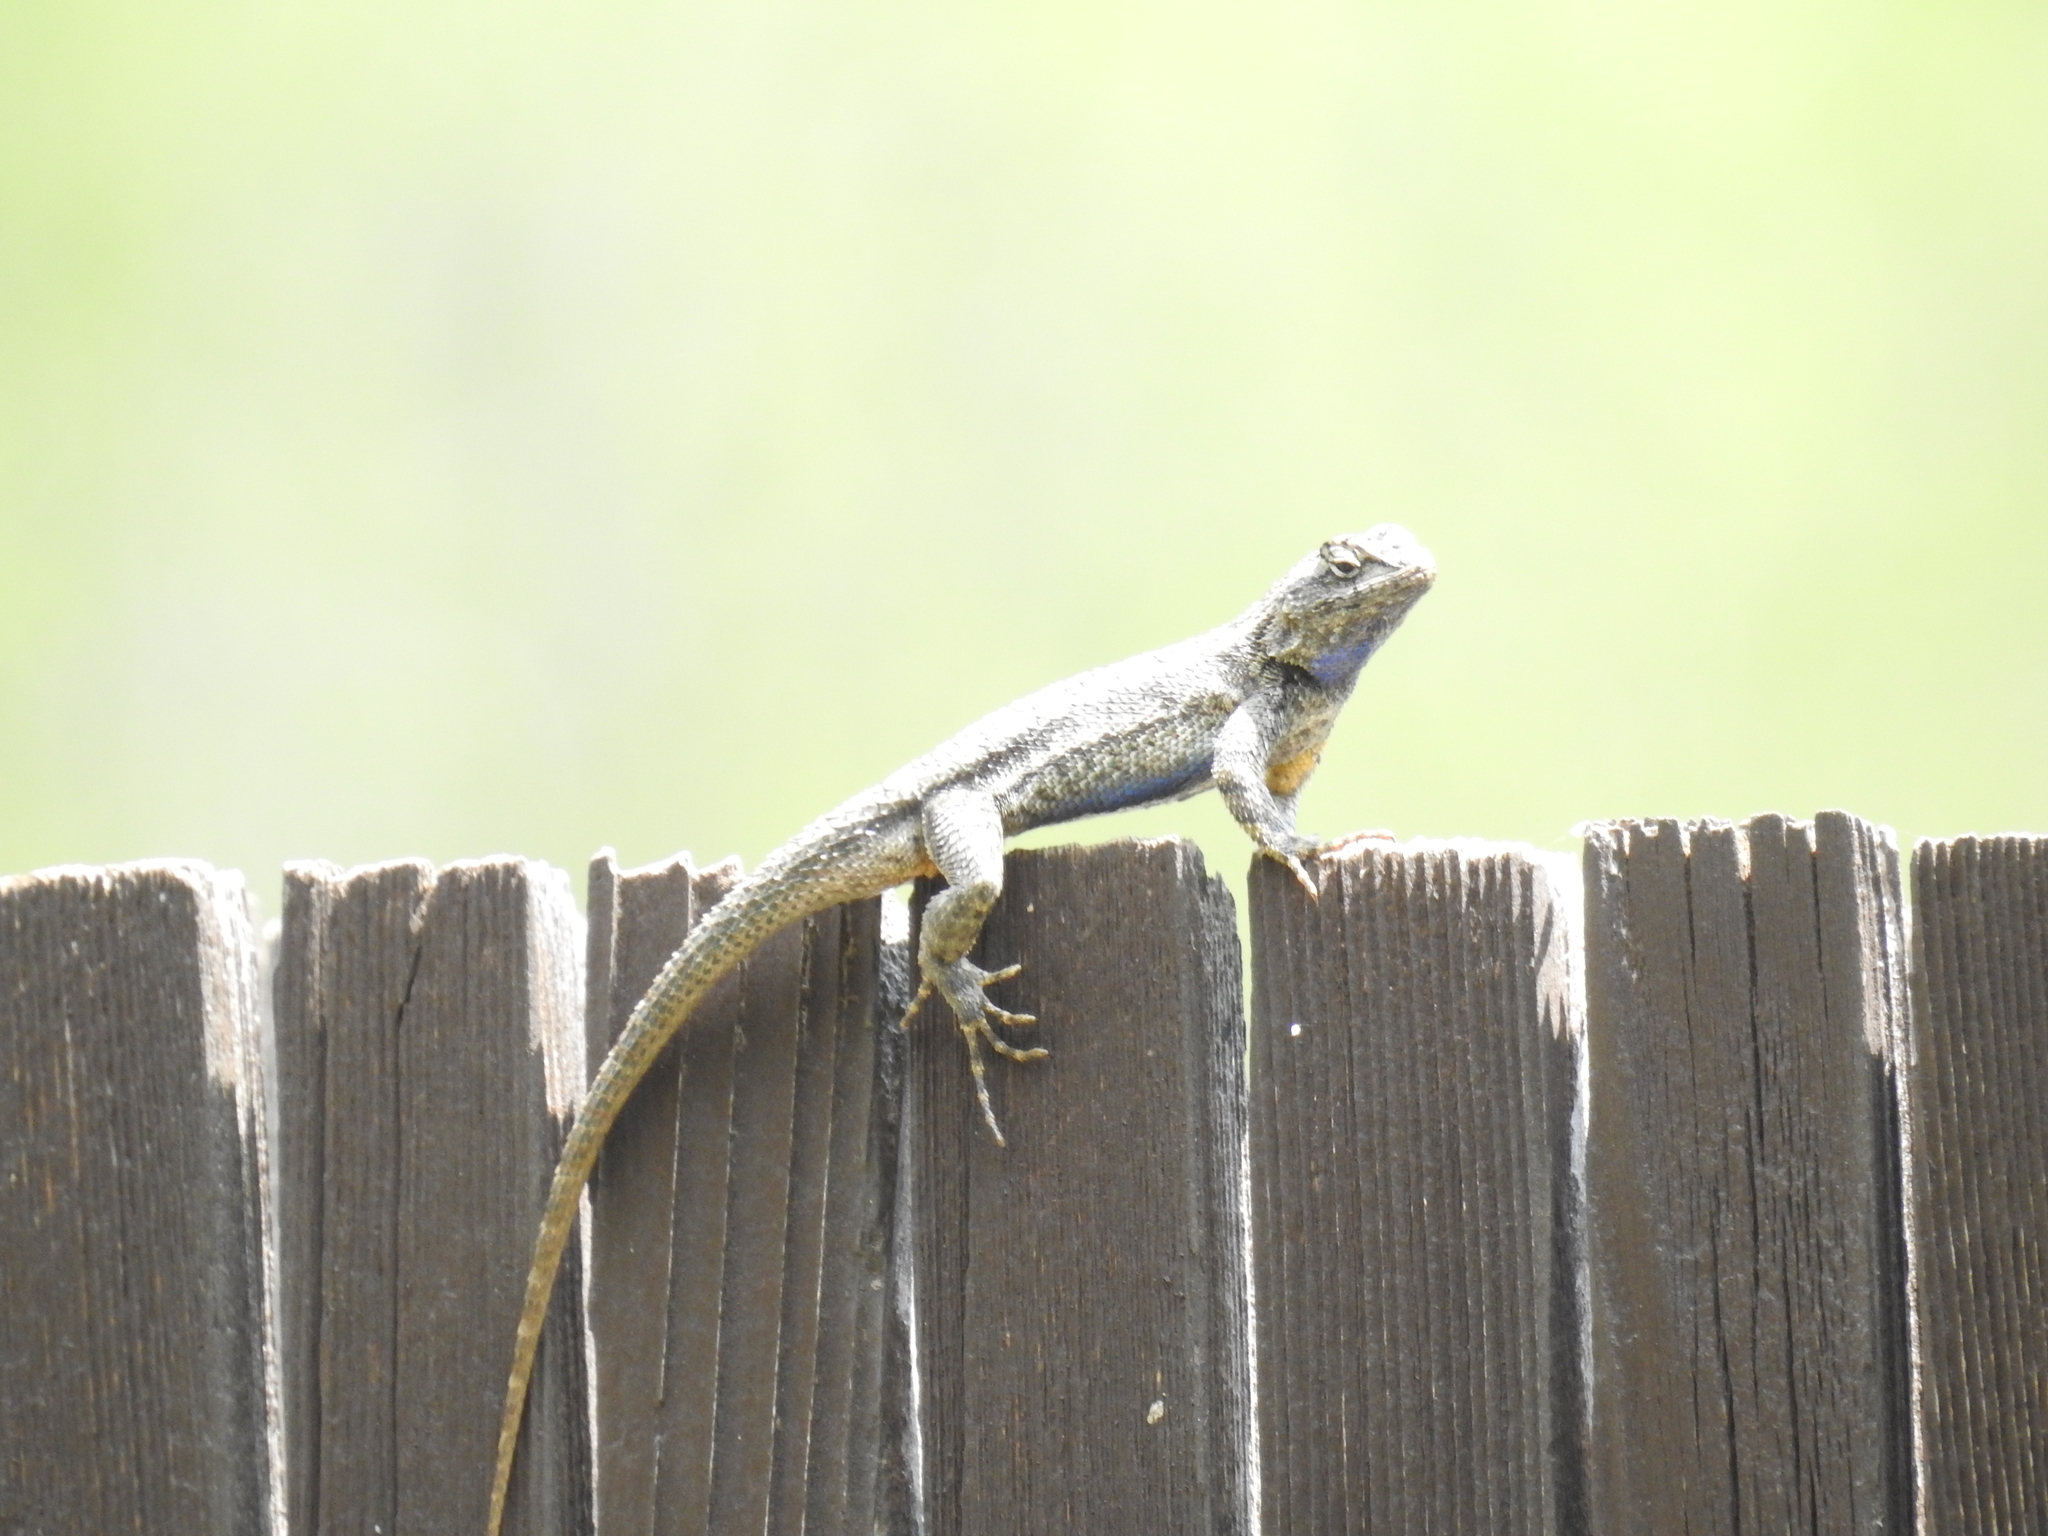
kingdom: Animalia
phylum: Chordata
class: Squamata
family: Phrynosomatidae
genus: Sceloporus
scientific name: Sceloporus occidentalis
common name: Western fence lizard
